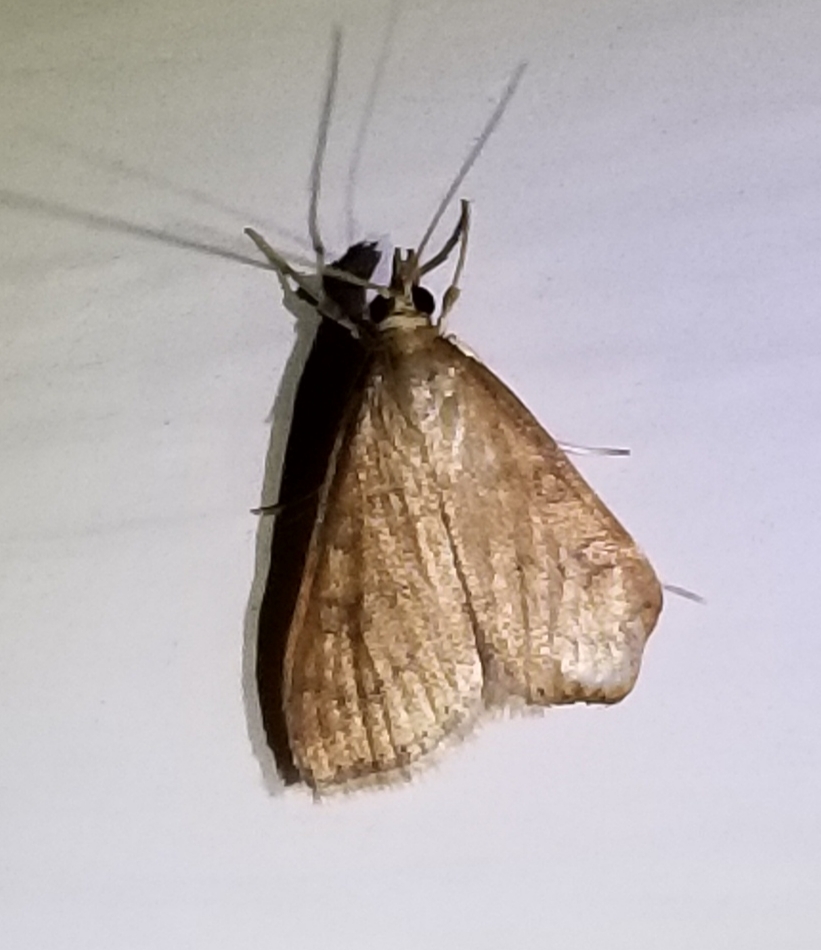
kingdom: Animalia
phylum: Arthropoda
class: Insecta
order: Lepidoptera
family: Crambidae
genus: Udea
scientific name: Udea rubigalis
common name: Celery leaftier moth
